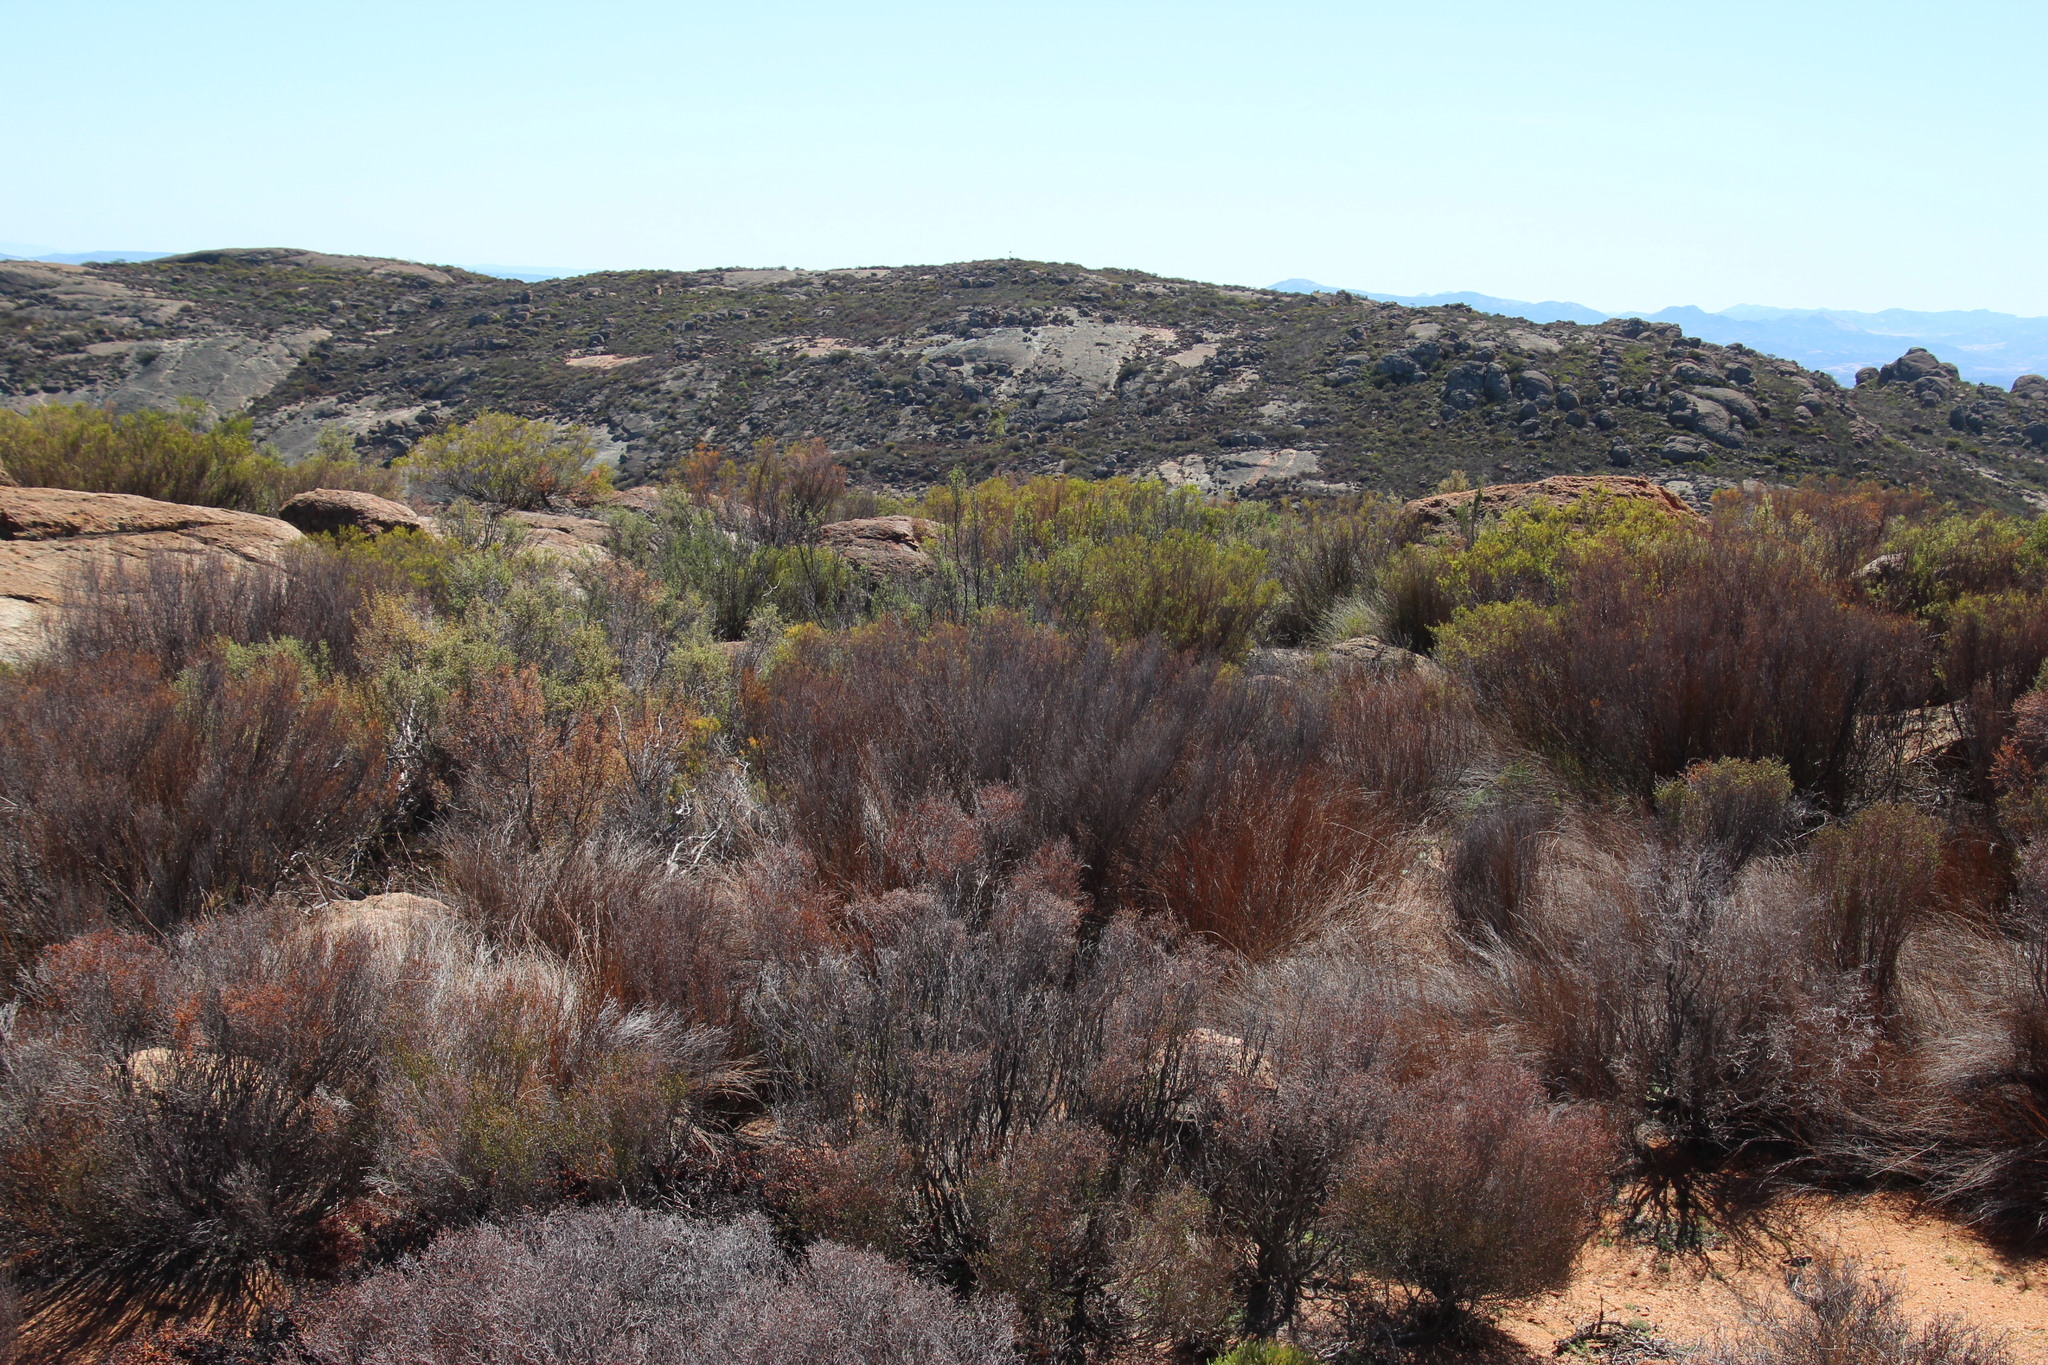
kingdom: Plantae
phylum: Tracheophyta
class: Liliopsida
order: Poales
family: Restionaceae
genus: Restio
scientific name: Restio vimineus
